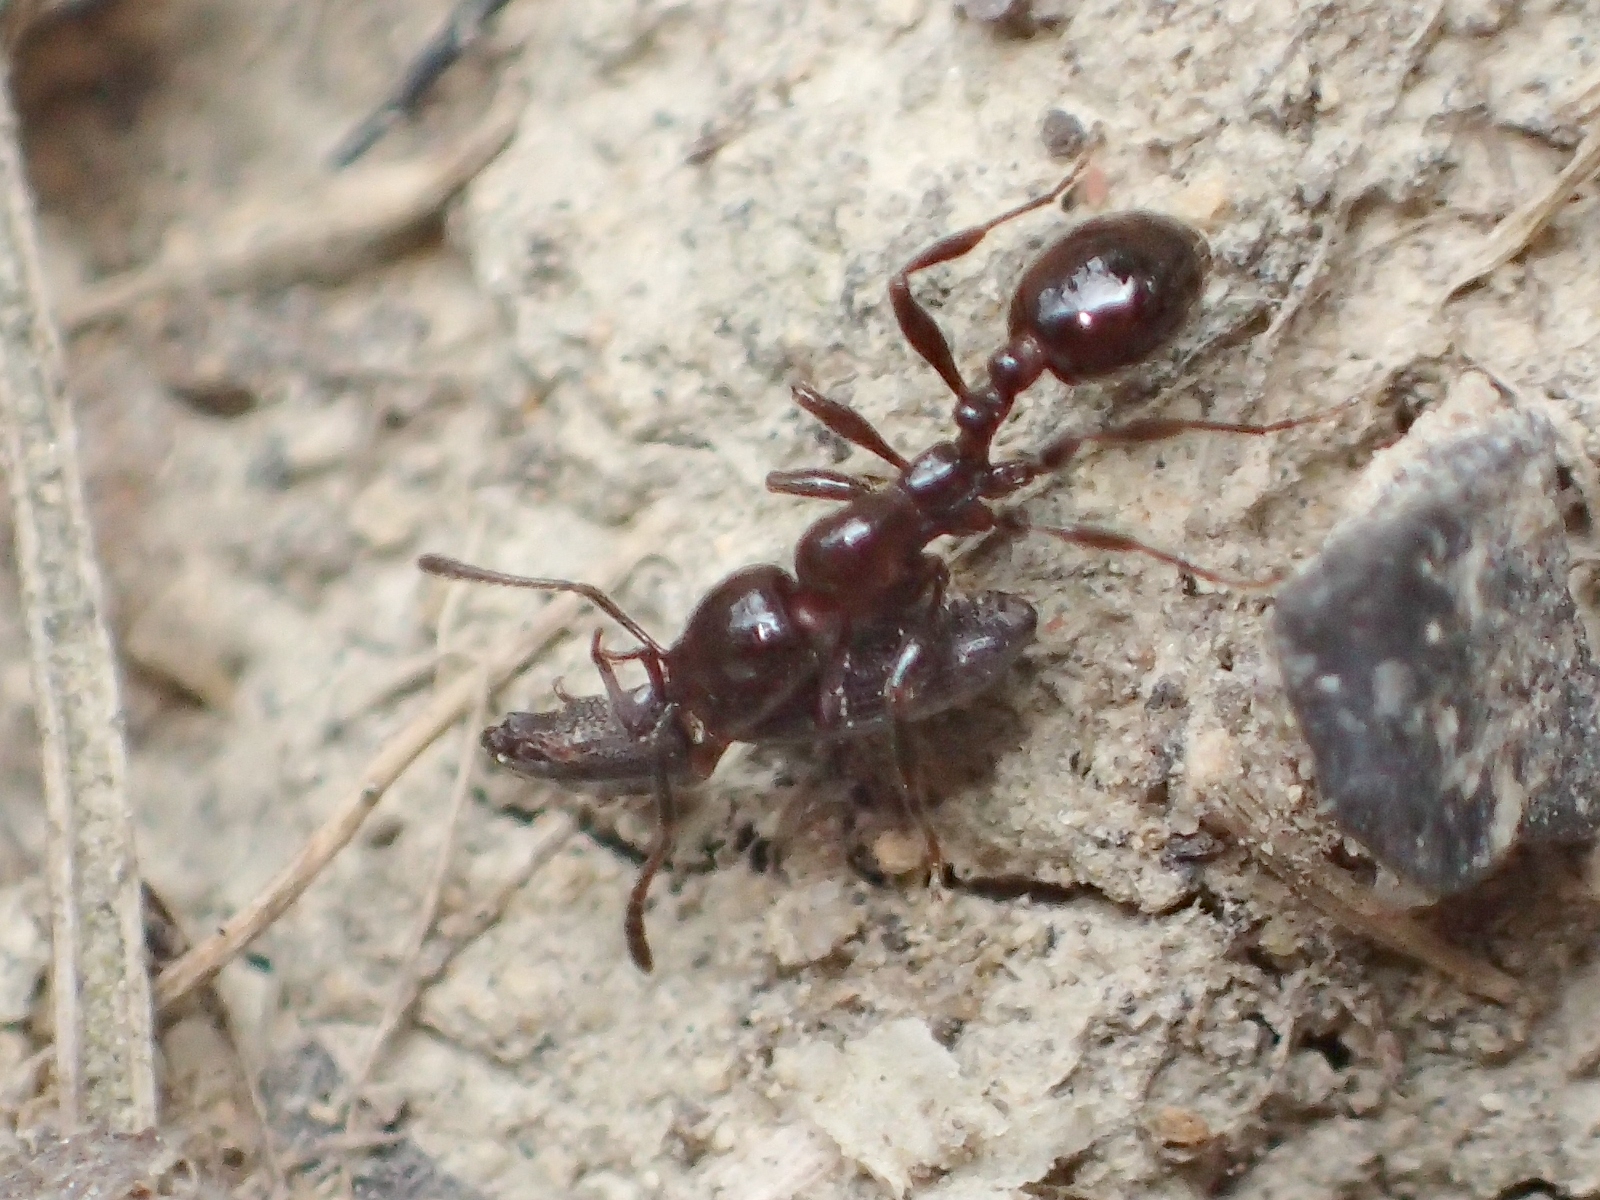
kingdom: Animalia
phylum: Arthropoda
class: Insecta
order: Hymenoptera
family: Formicidae
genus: Monomorium
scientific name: Monomorium antarcticum
